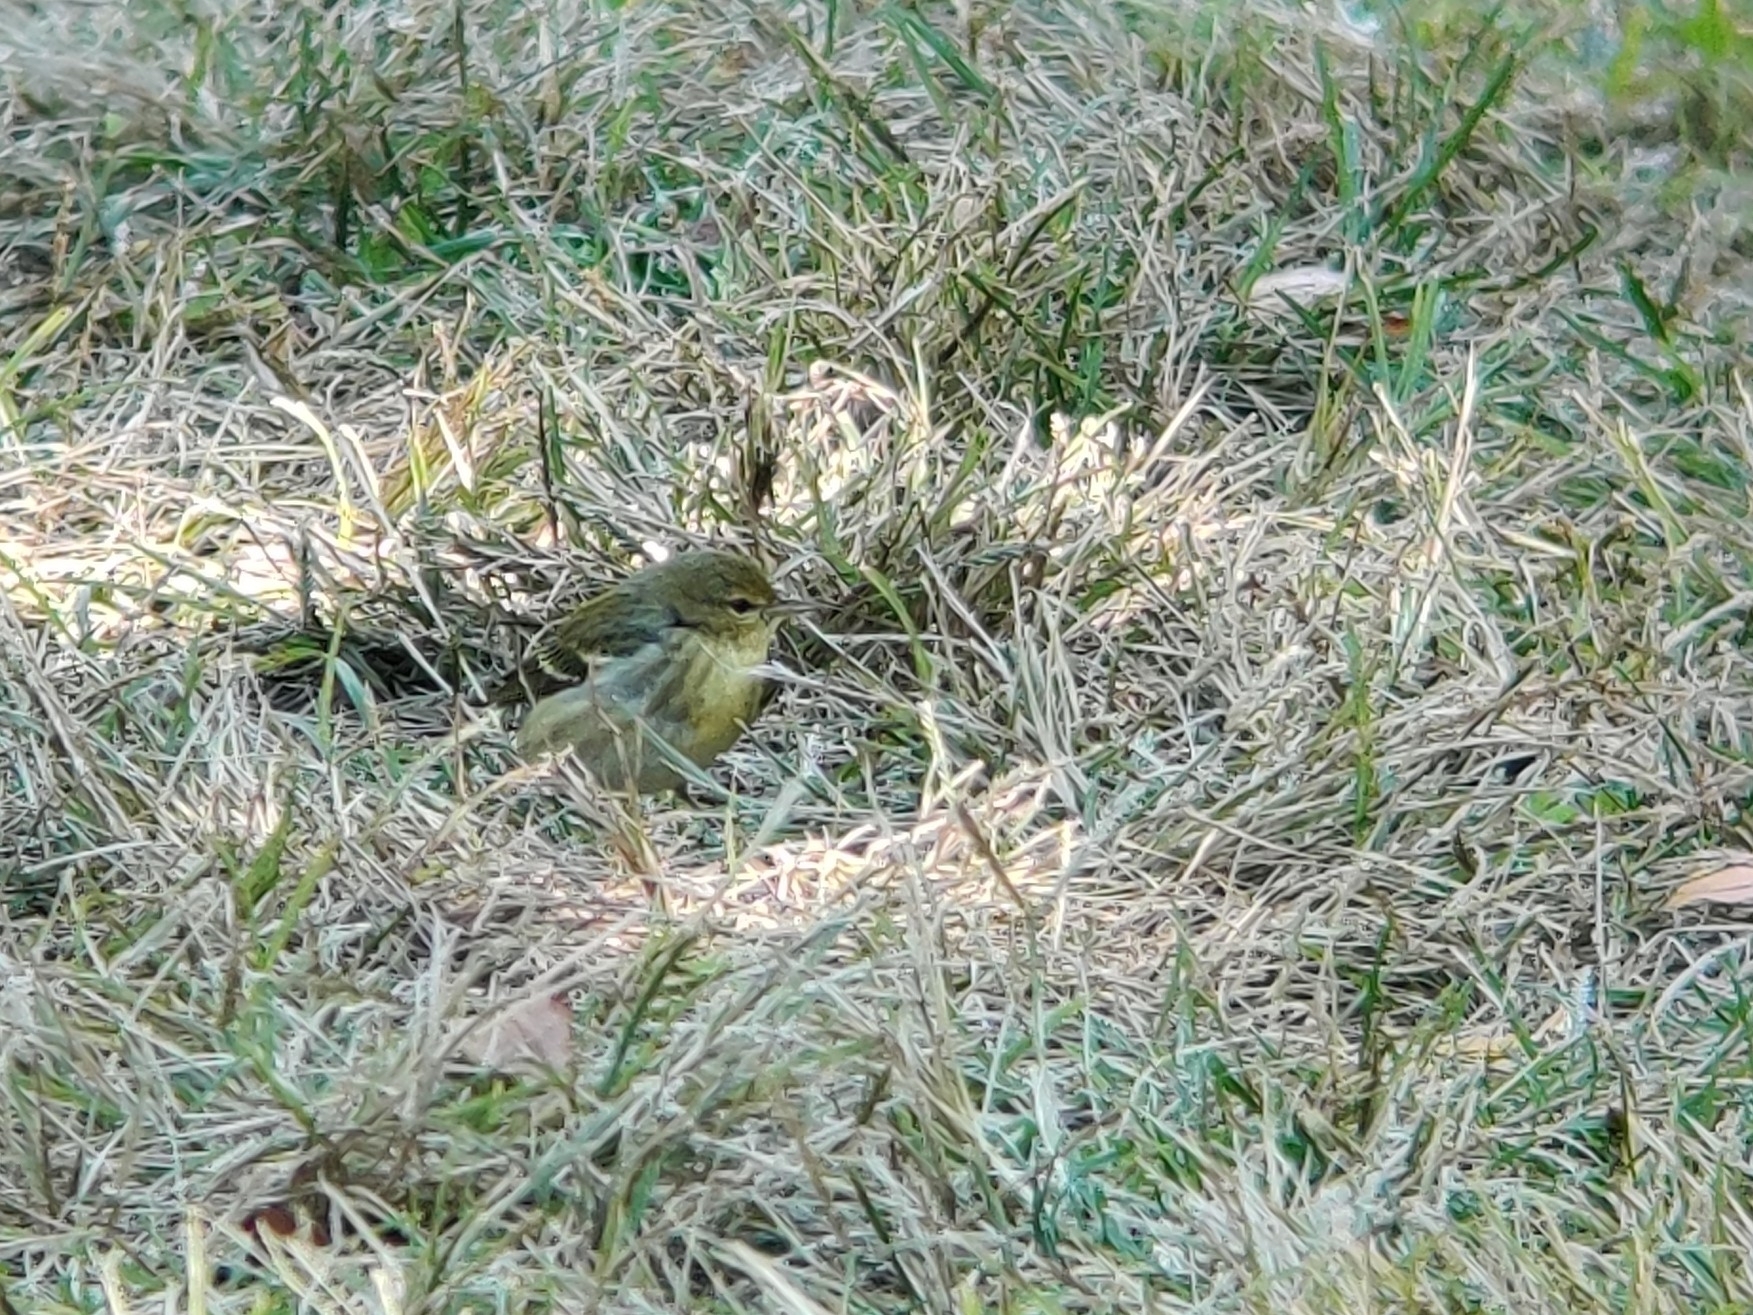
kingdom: Animalia
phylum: Chordata
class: Aves
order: Passeriformes
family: Parulidae
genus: Setophaga
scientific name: Setophaga striata
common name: Blackpoll warbler
